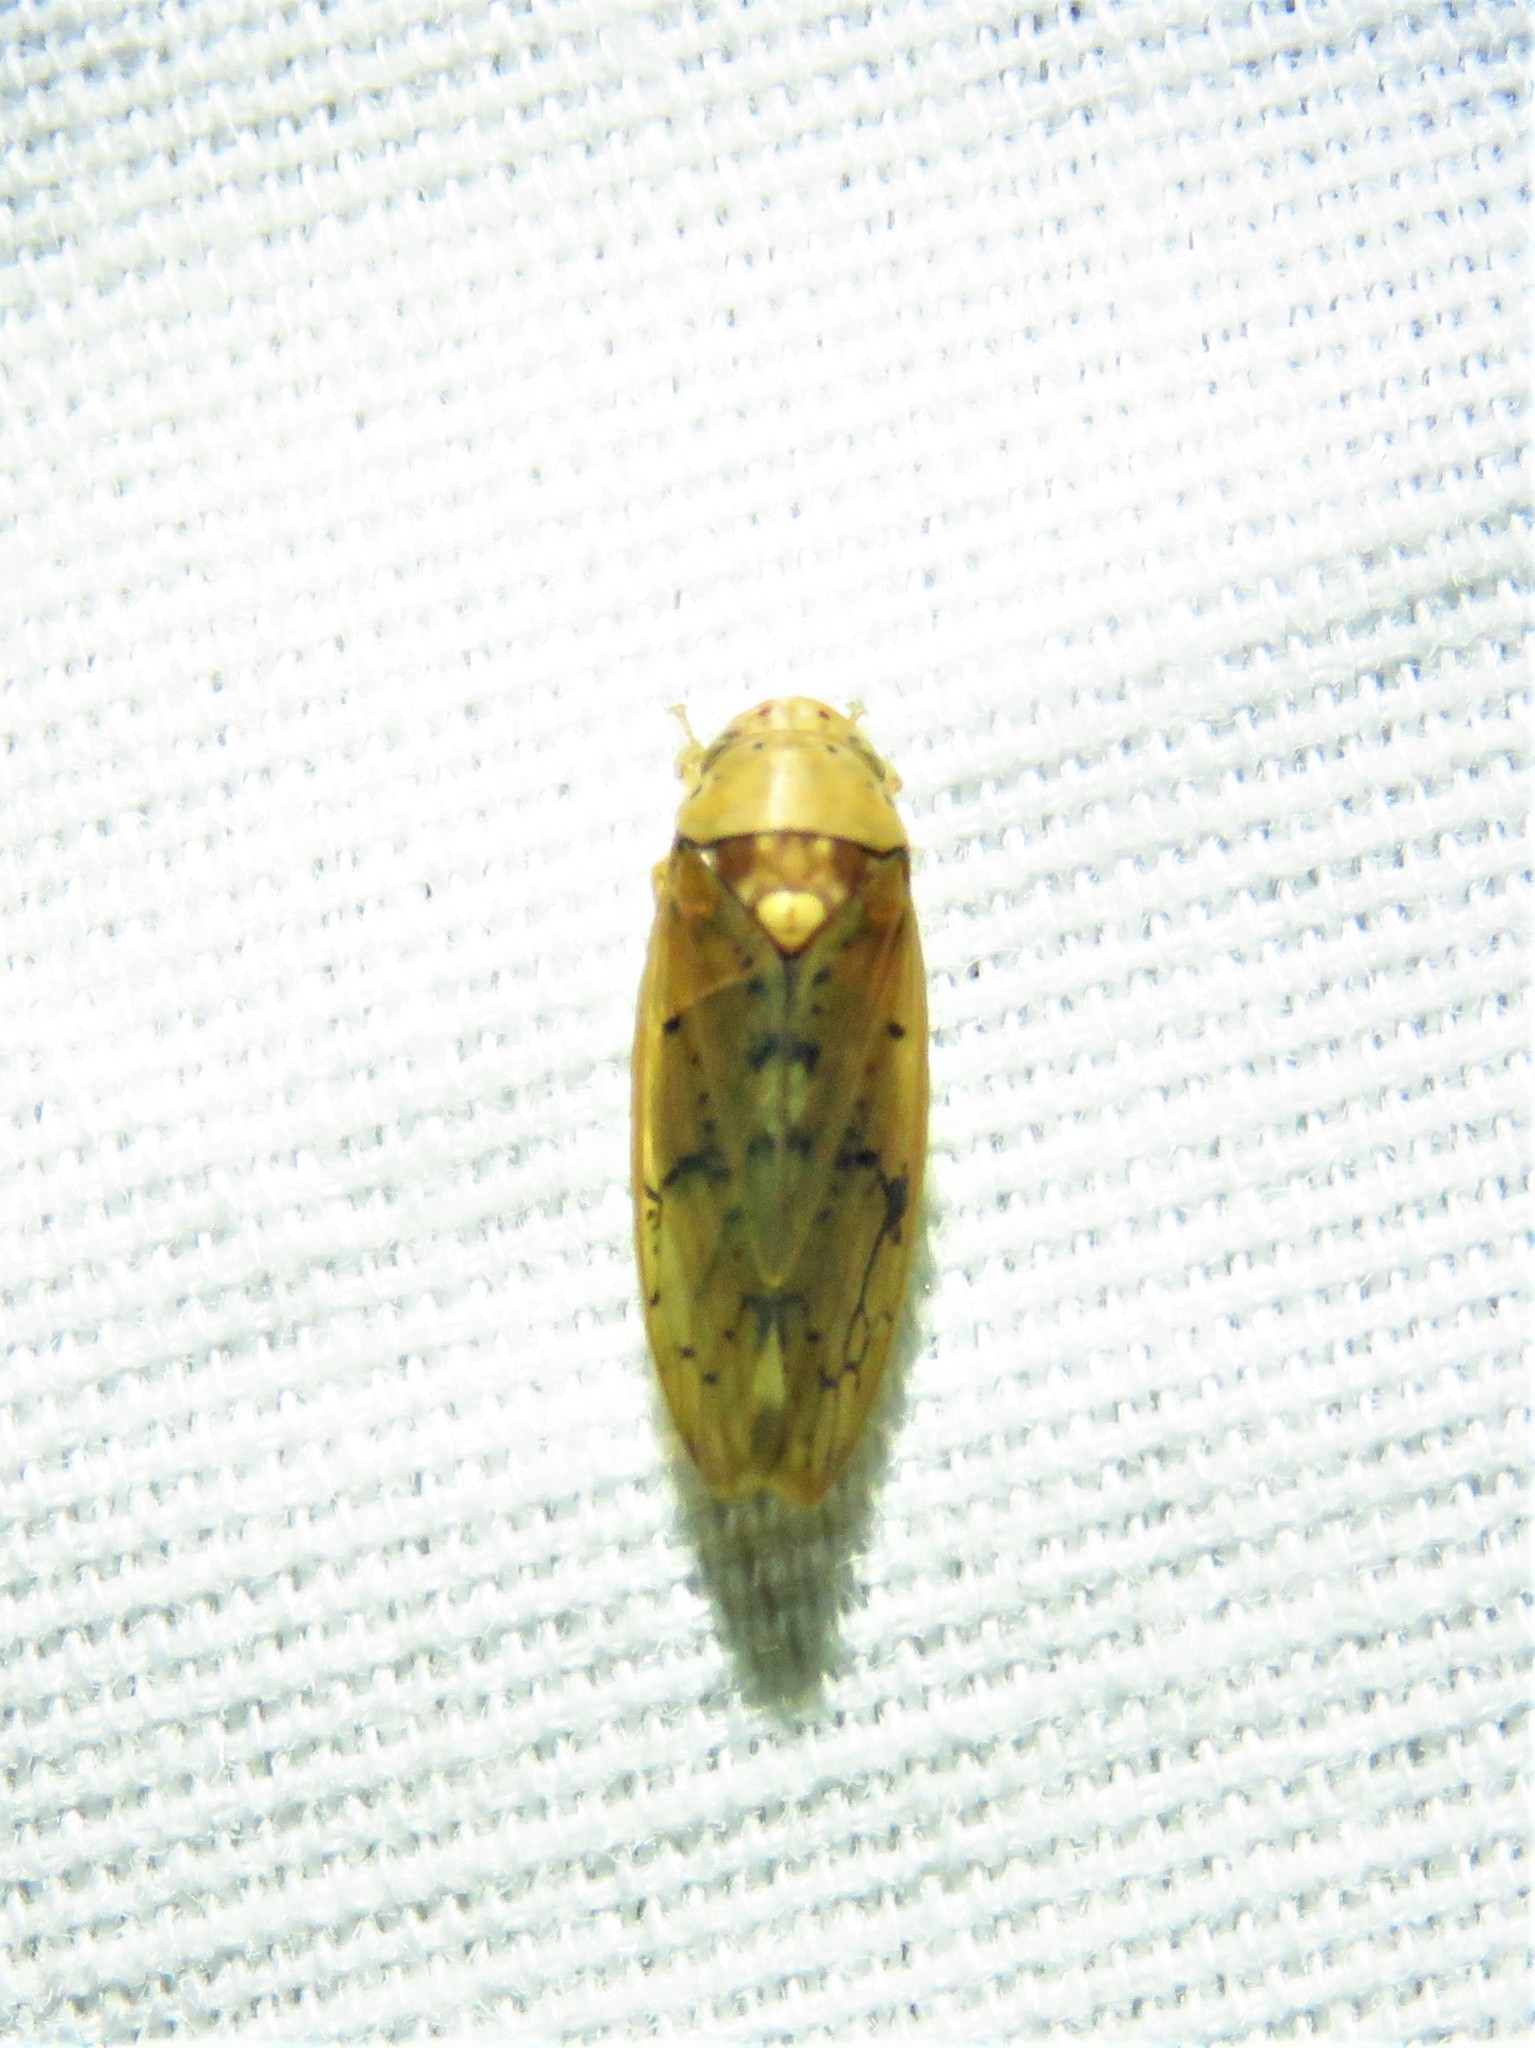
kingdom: Animalia
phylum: Arthropoda
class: Insecta
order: Hemiptera
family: Cicadellidae
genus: Ponana
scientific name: Ponana quadralaba
